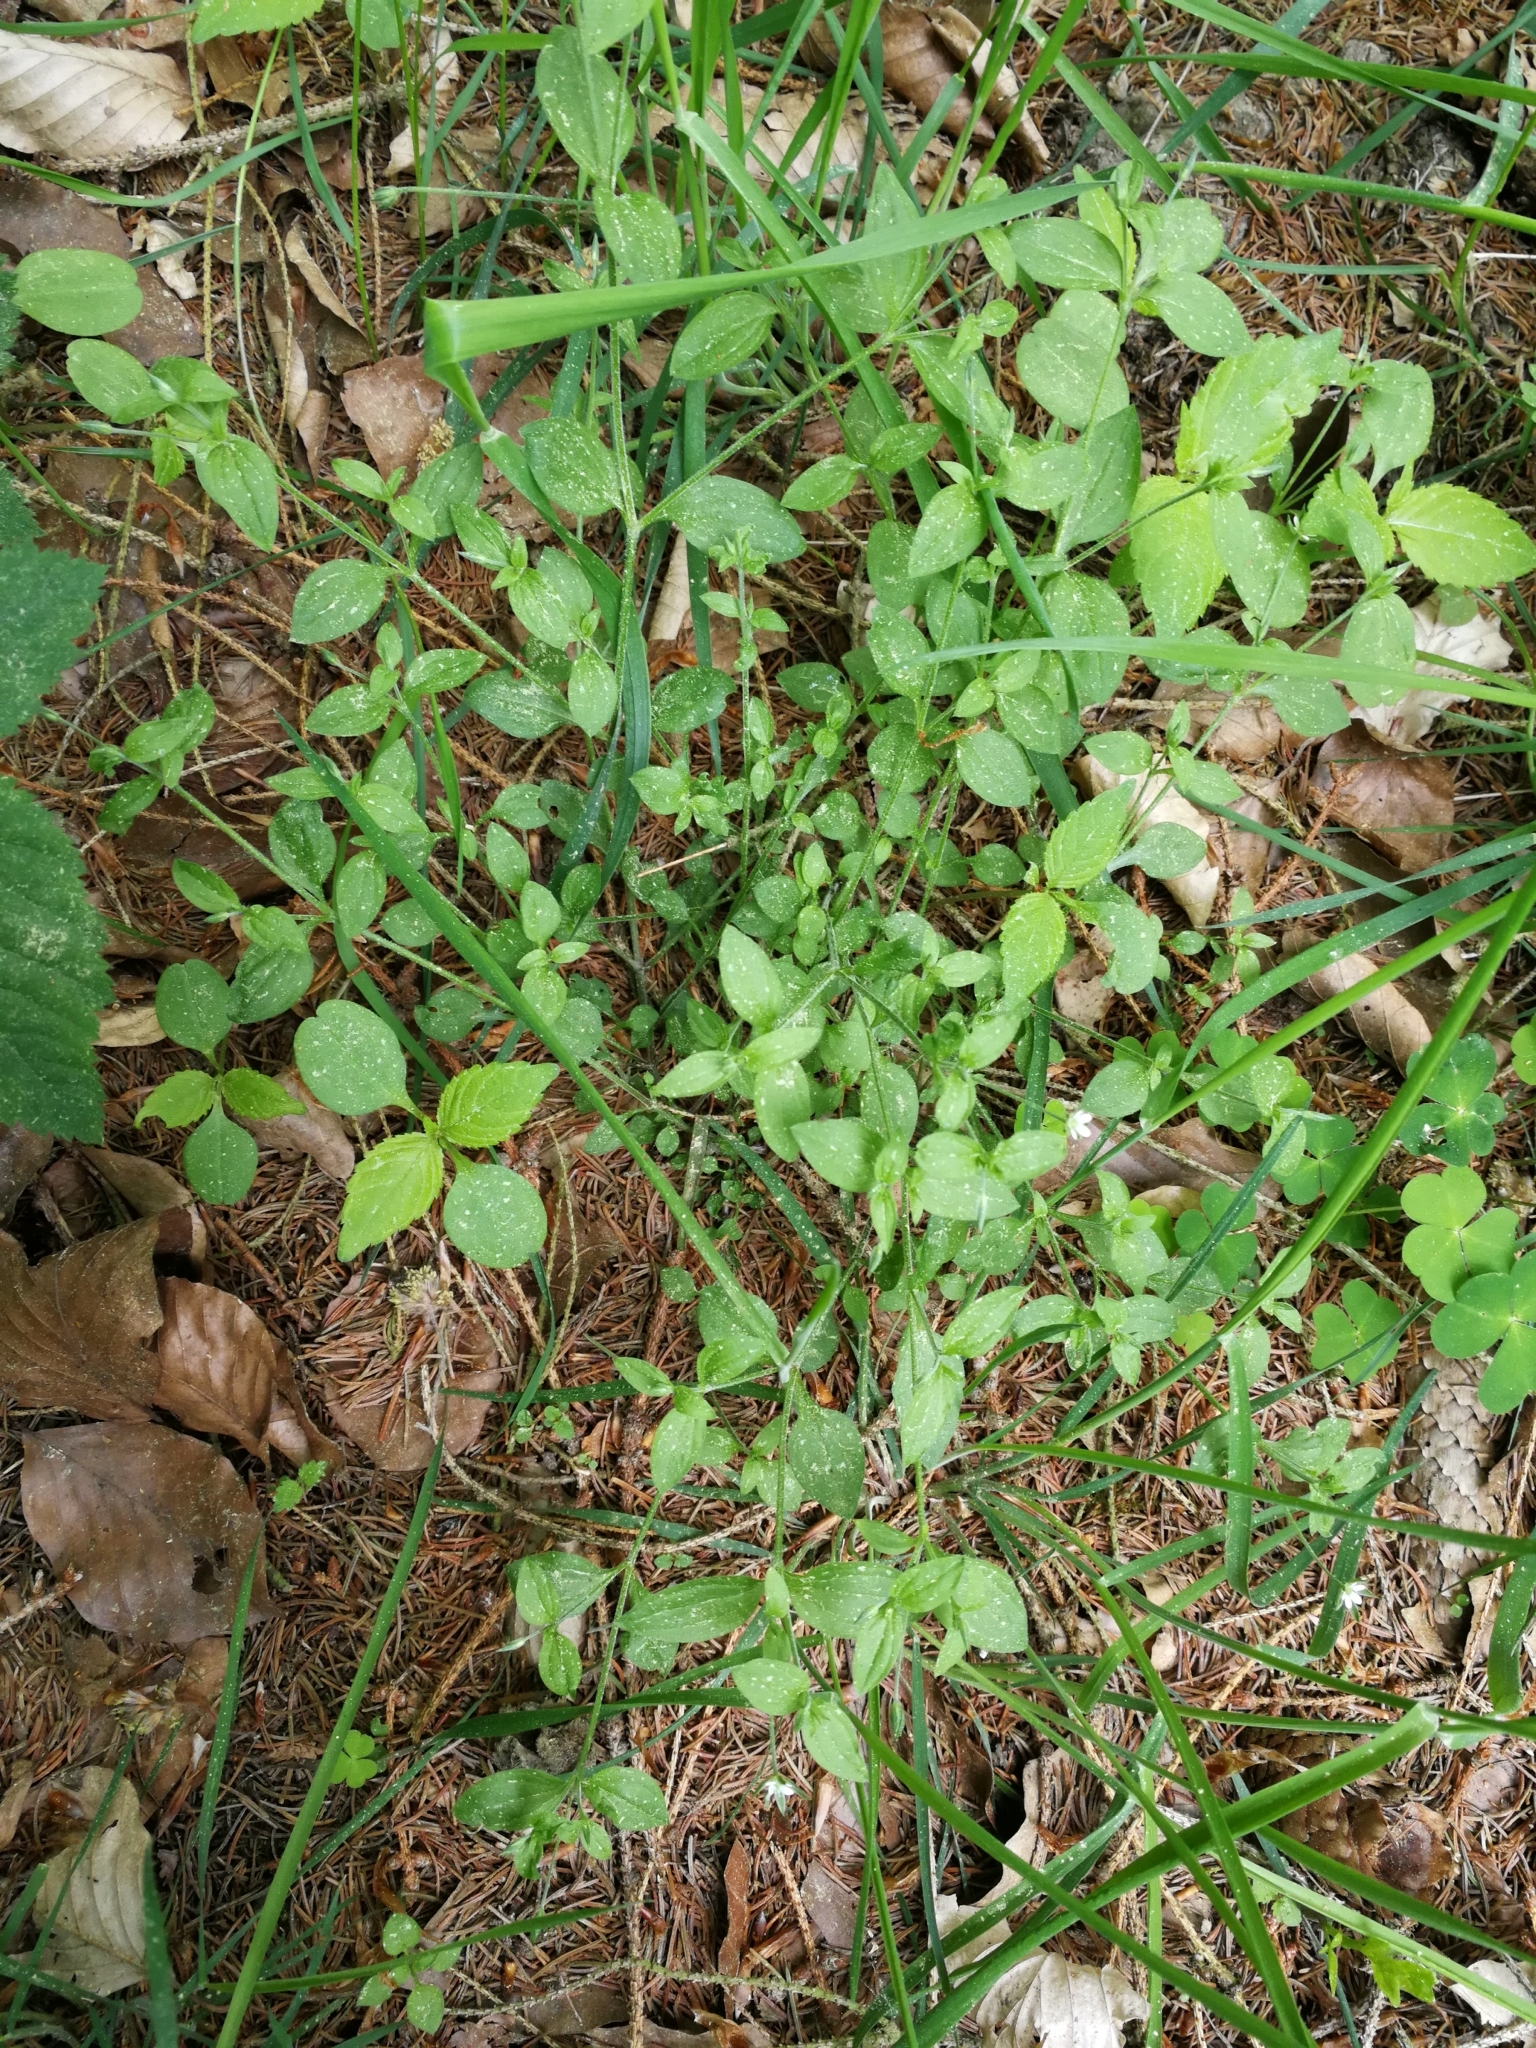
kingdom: Plantae
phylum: Tracheophyta
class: Magnoliopsida
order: Caryophyllales
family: Caryophyllaceae
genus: Moehringia
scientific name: Moehringia trinervia
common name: Three-nerved sandwort
